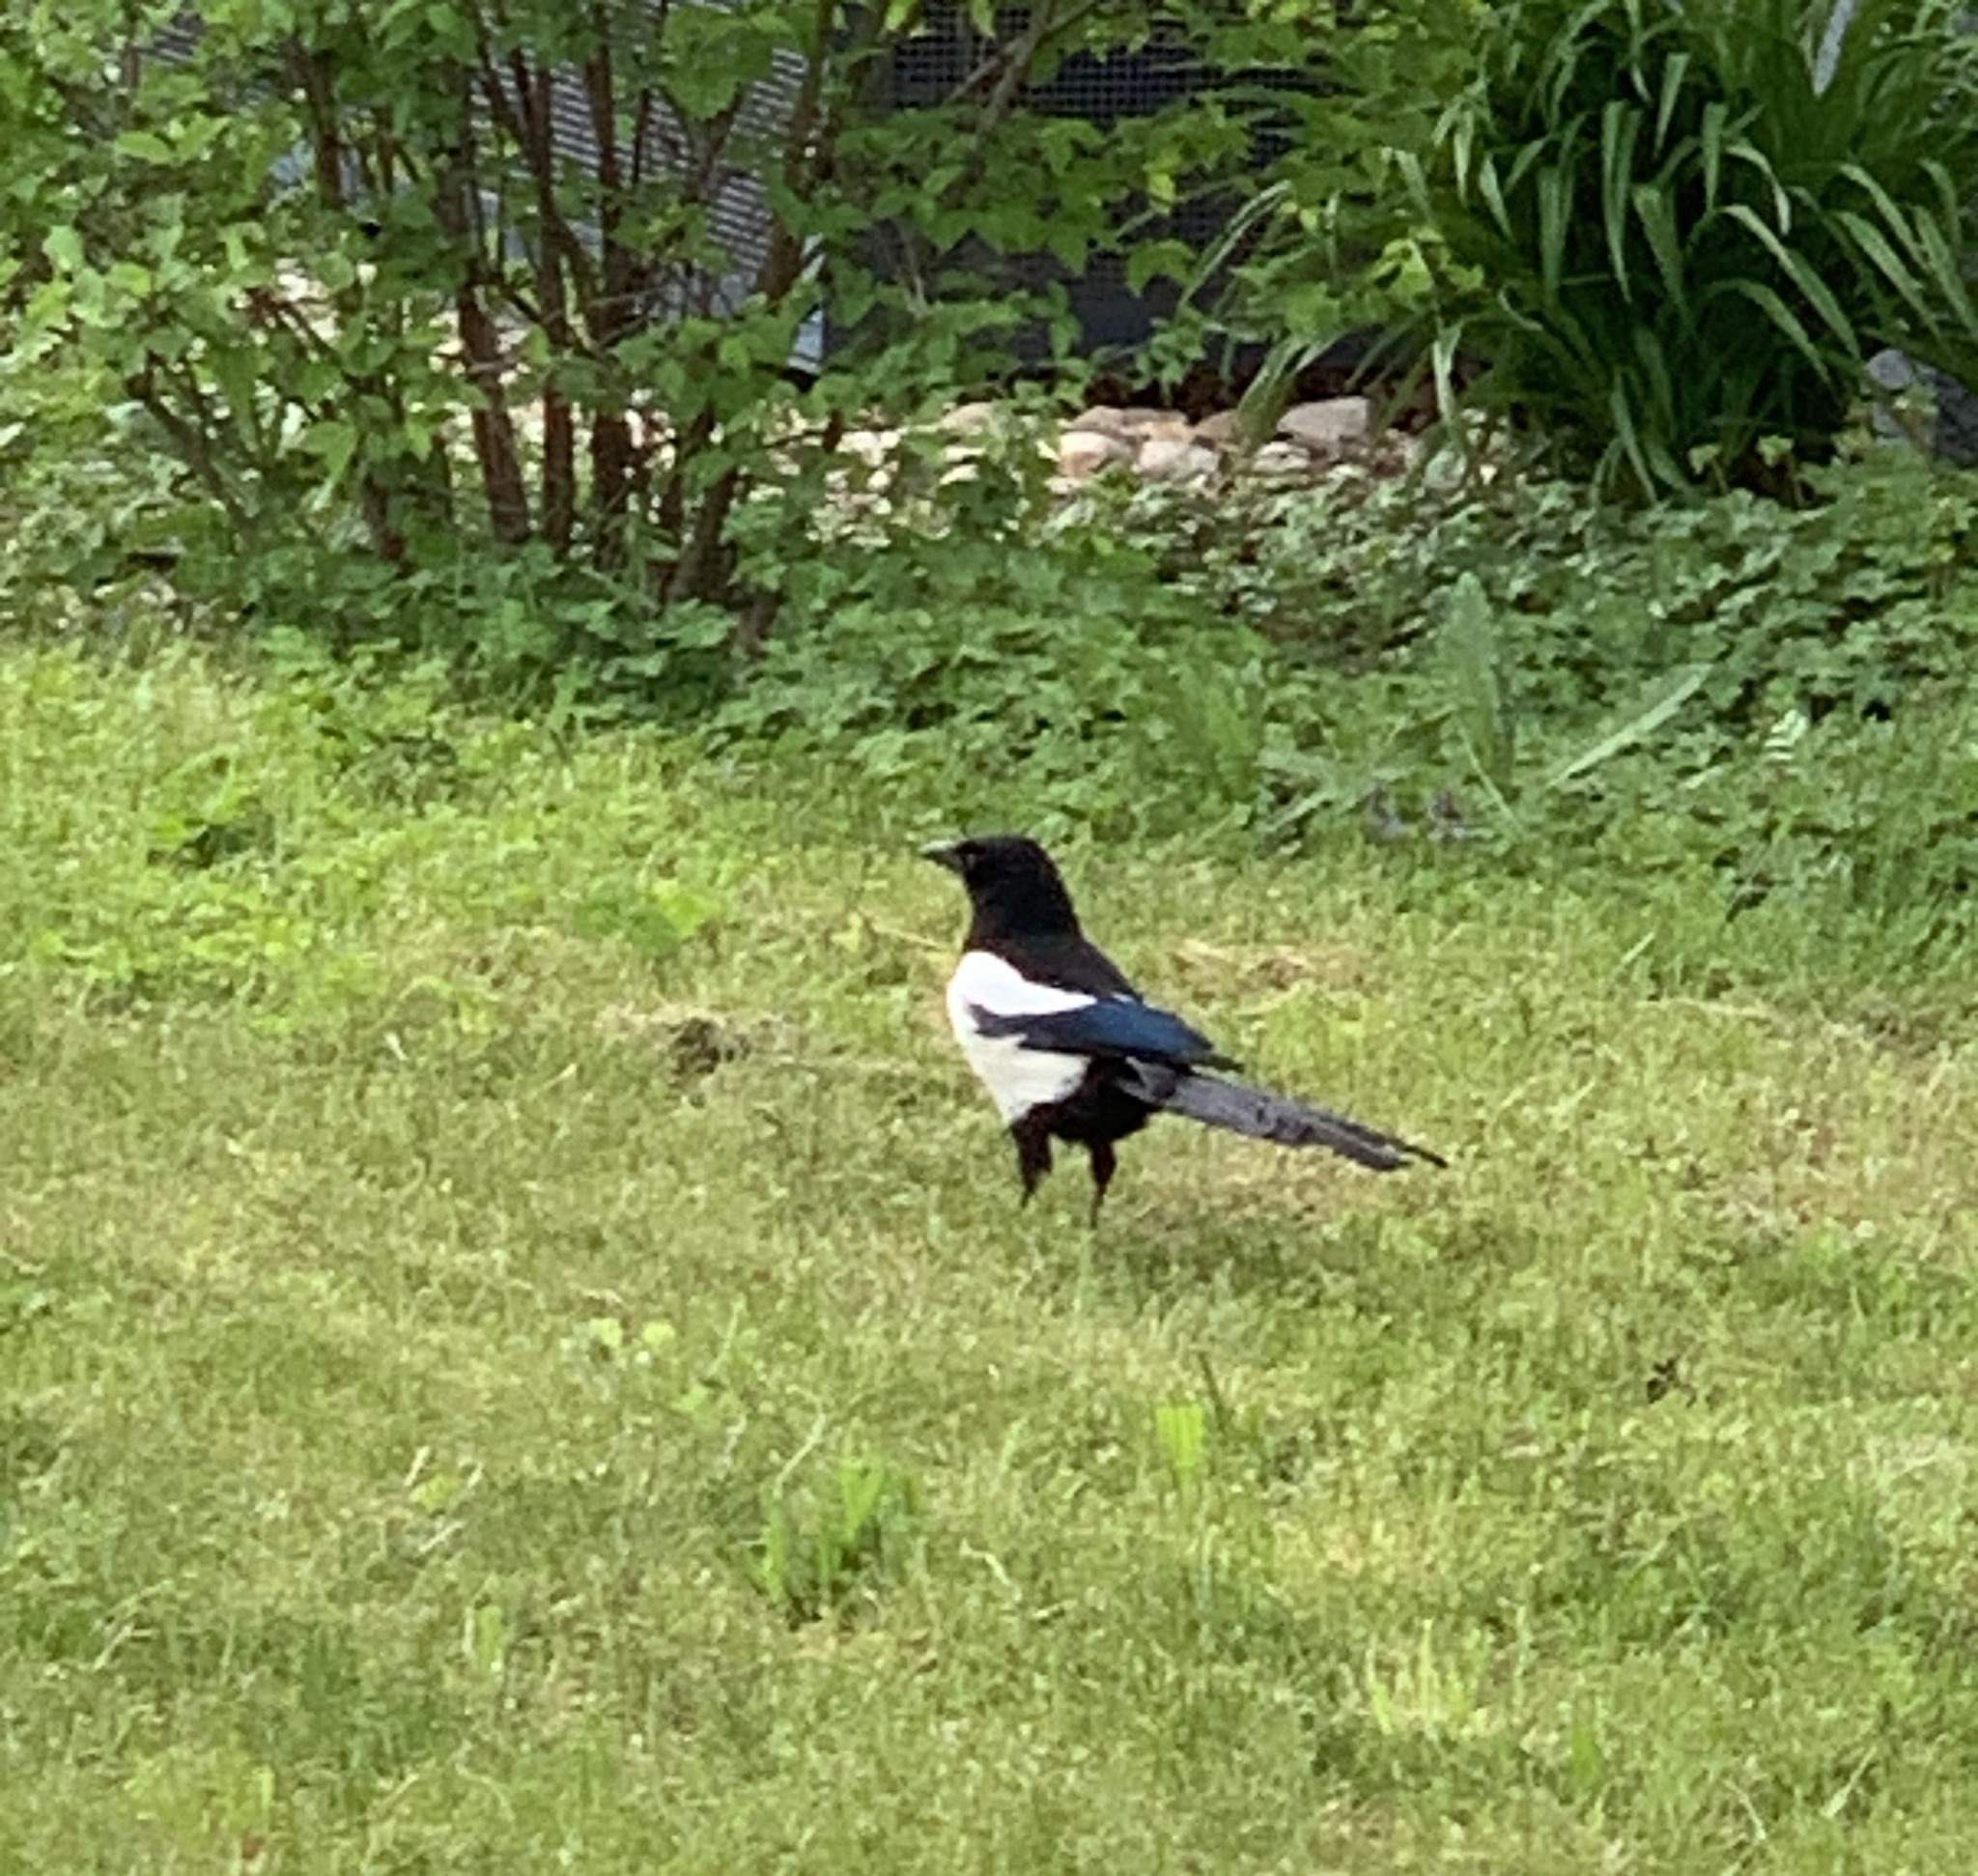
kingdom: Animalia
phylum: Chordata
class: Aves
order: Passeriformes
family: Corvidae
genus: Pica
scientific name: Pica pica
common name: Eurasian magpie
